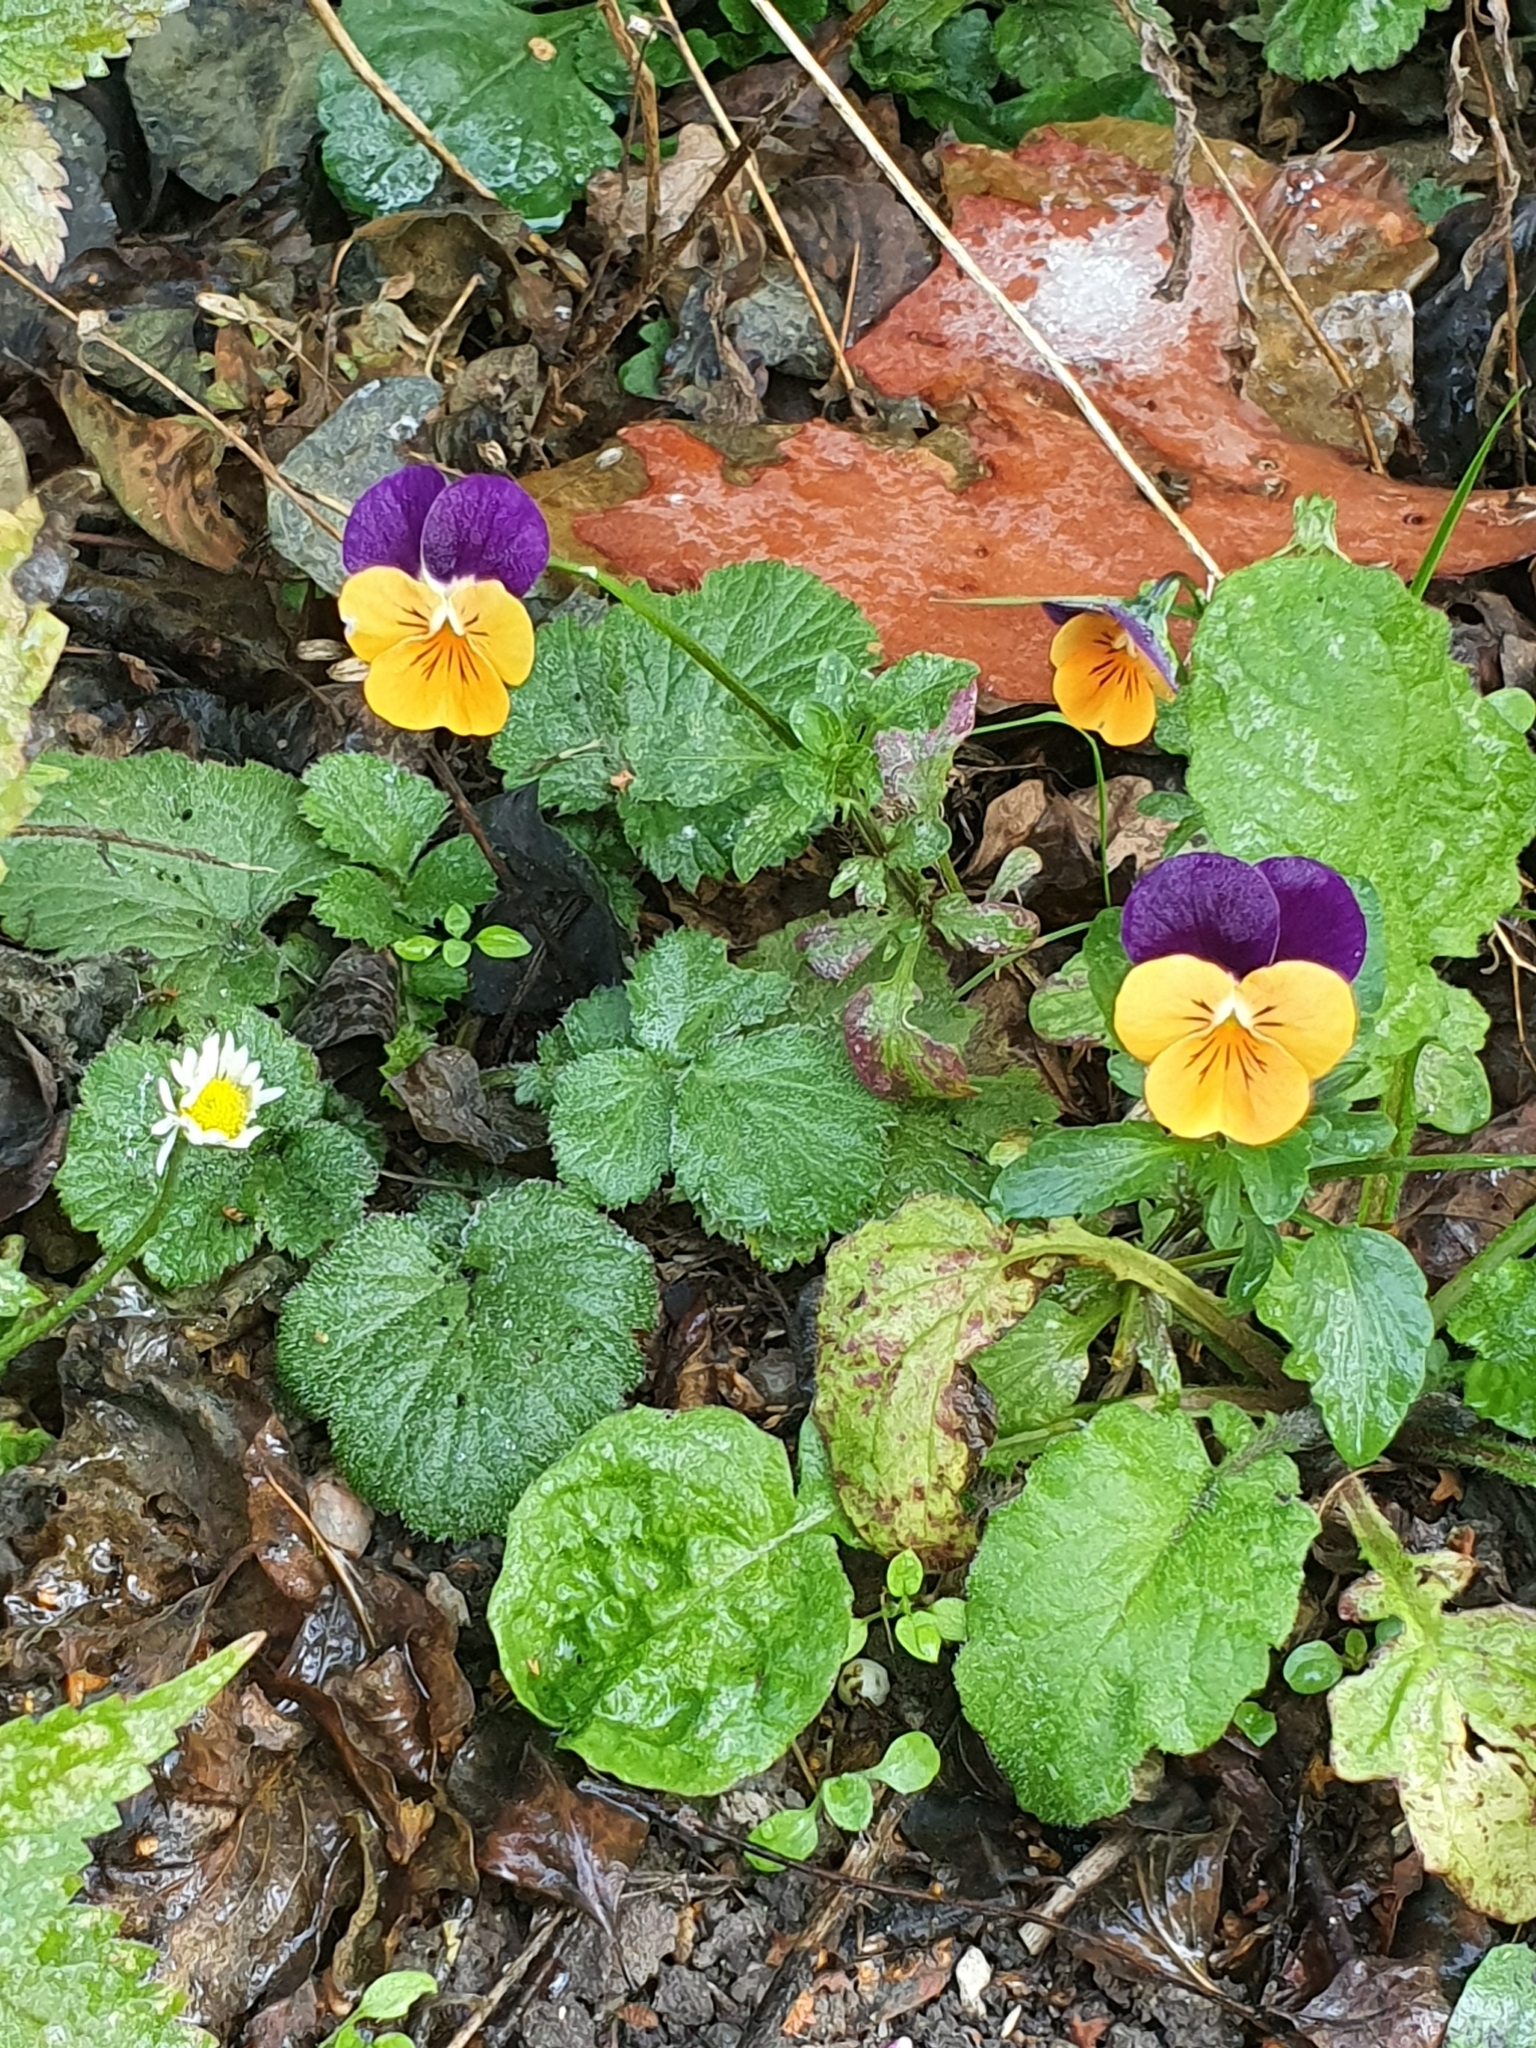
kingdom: Plantae
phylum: Tracheophyta
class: Magnoliopsida
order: Malpighiales
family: Violaceae
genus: Viola
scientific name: Viola wittrockiana
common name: Garden pansy
